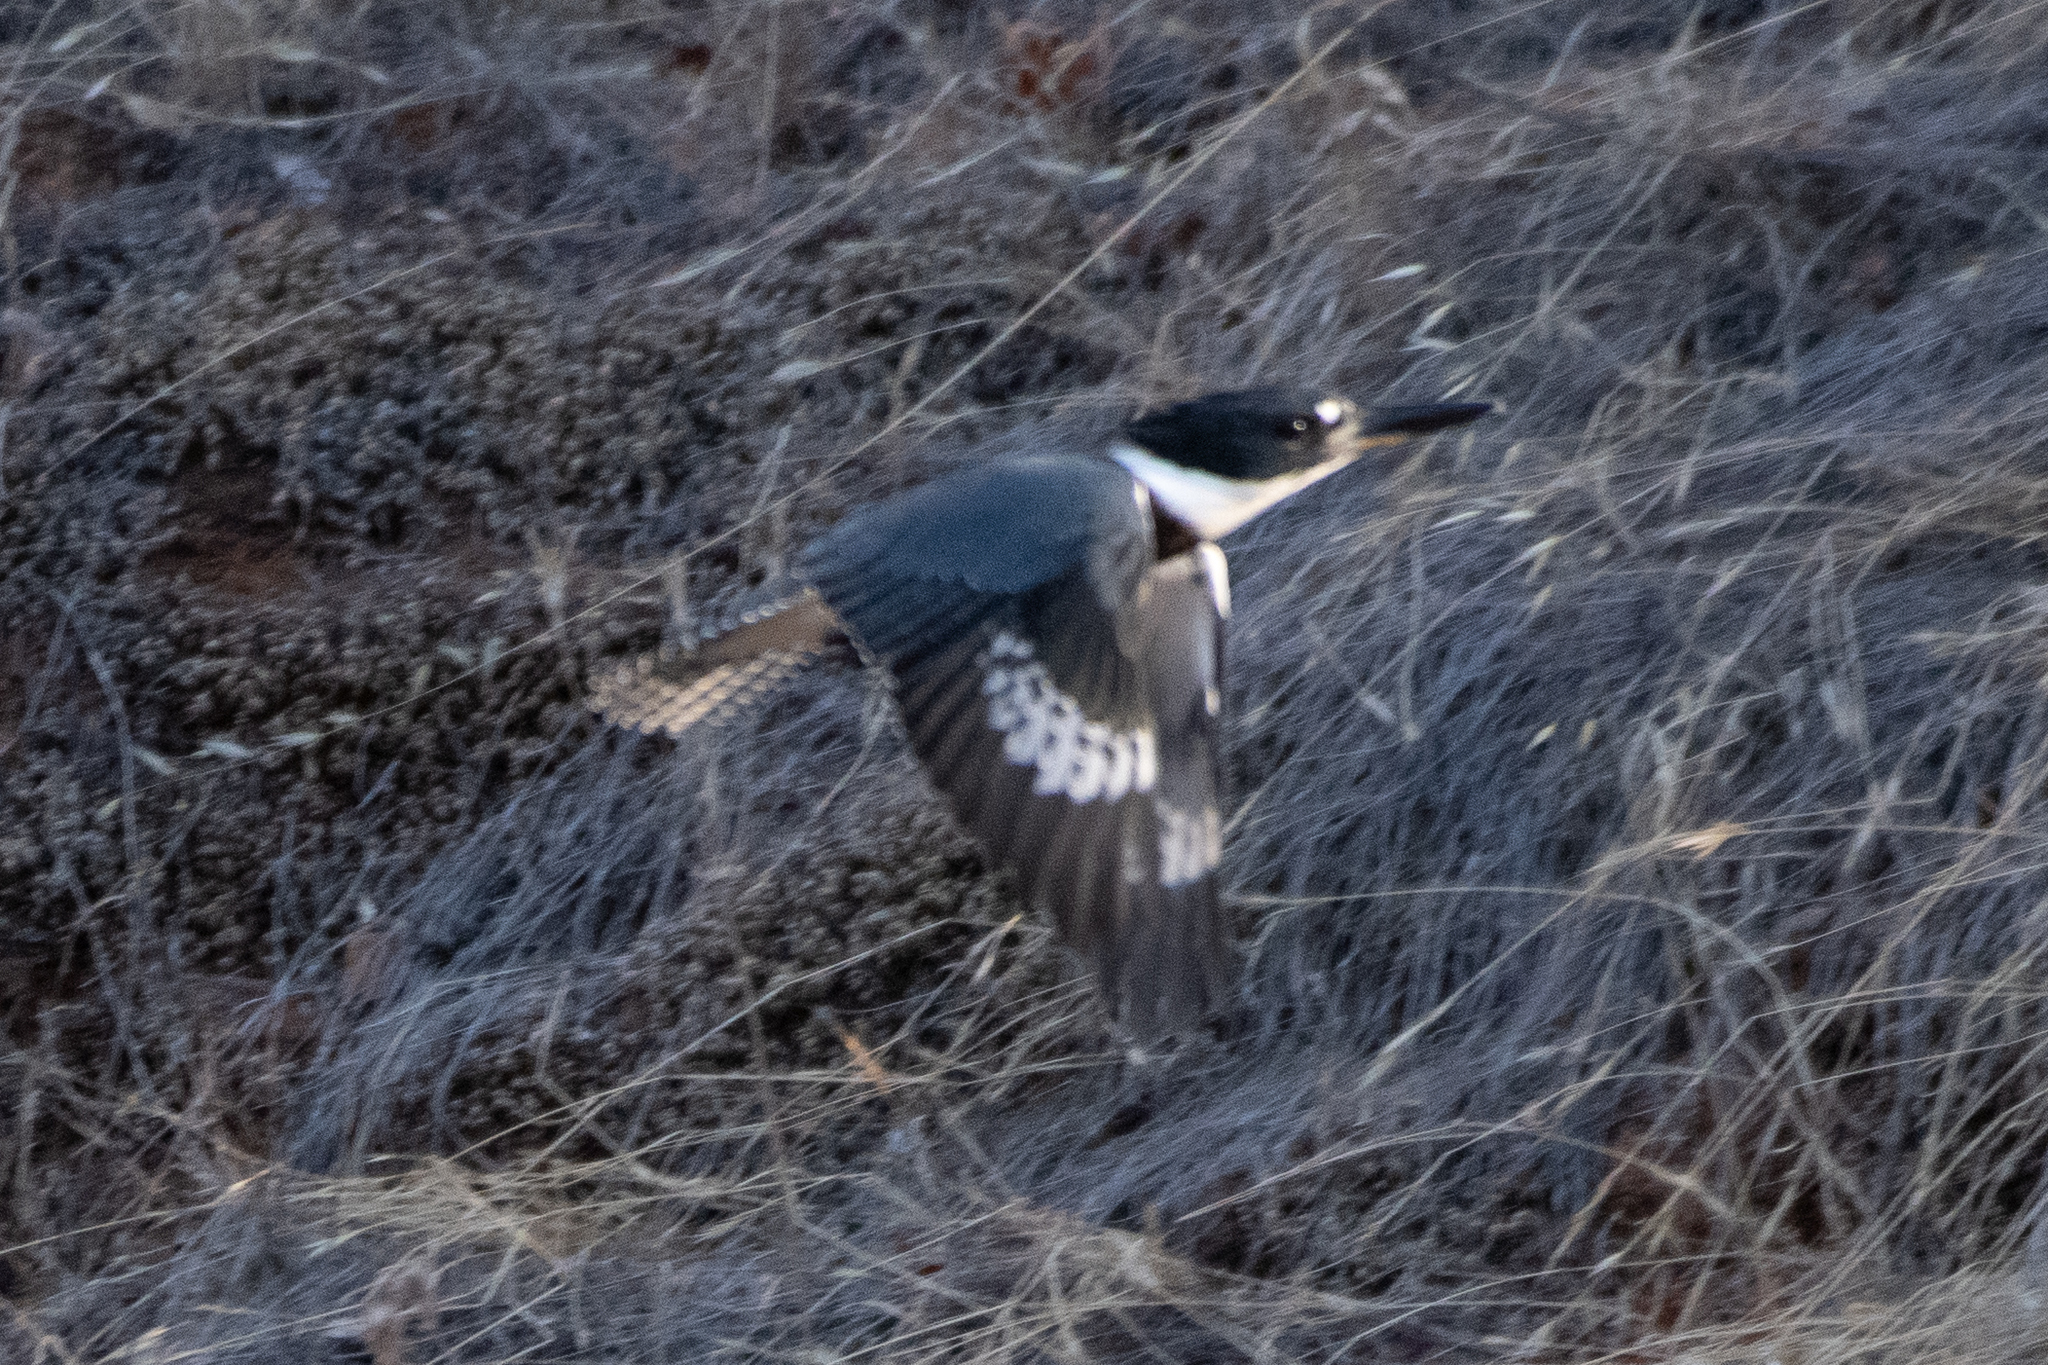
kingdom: Animalia
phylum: Chordata
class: Aves
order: Coraciiformes
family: Alcedinidae
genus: Megaceryle
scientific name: Megaceryle alcyon
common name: Belted kingfisher
